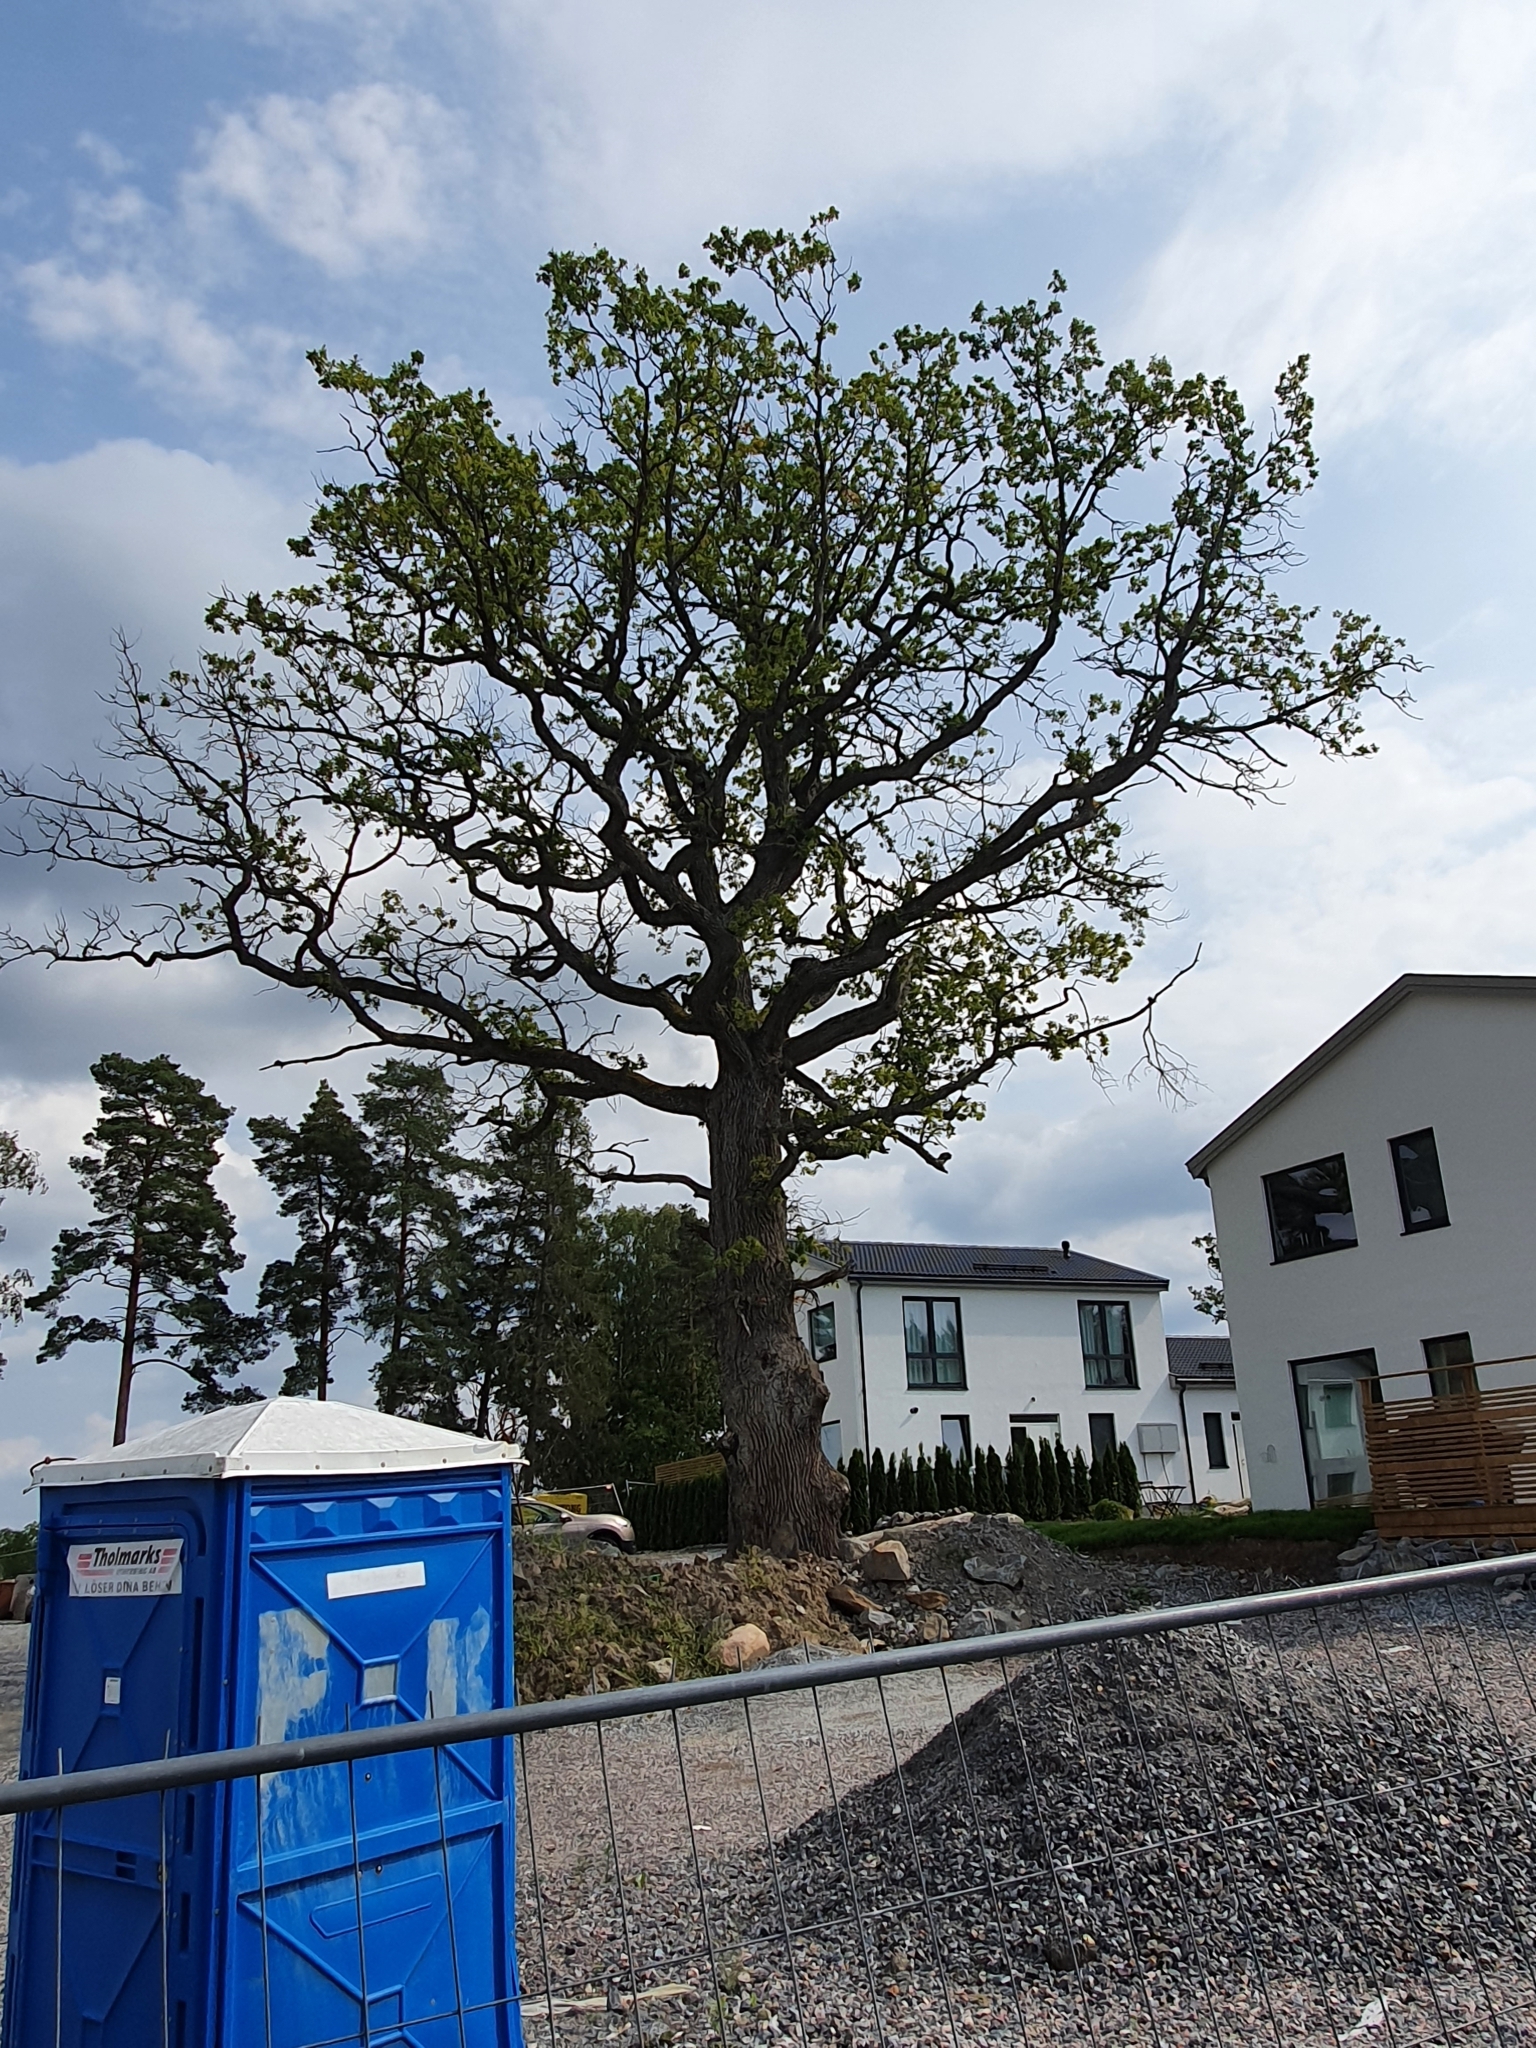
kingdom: Plantae
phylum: Tracheophyta
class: Magnoliopsida
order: Fagales
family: Fagaceae
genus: Quercus
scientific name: Quercus robur
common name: Pedunculate oak
